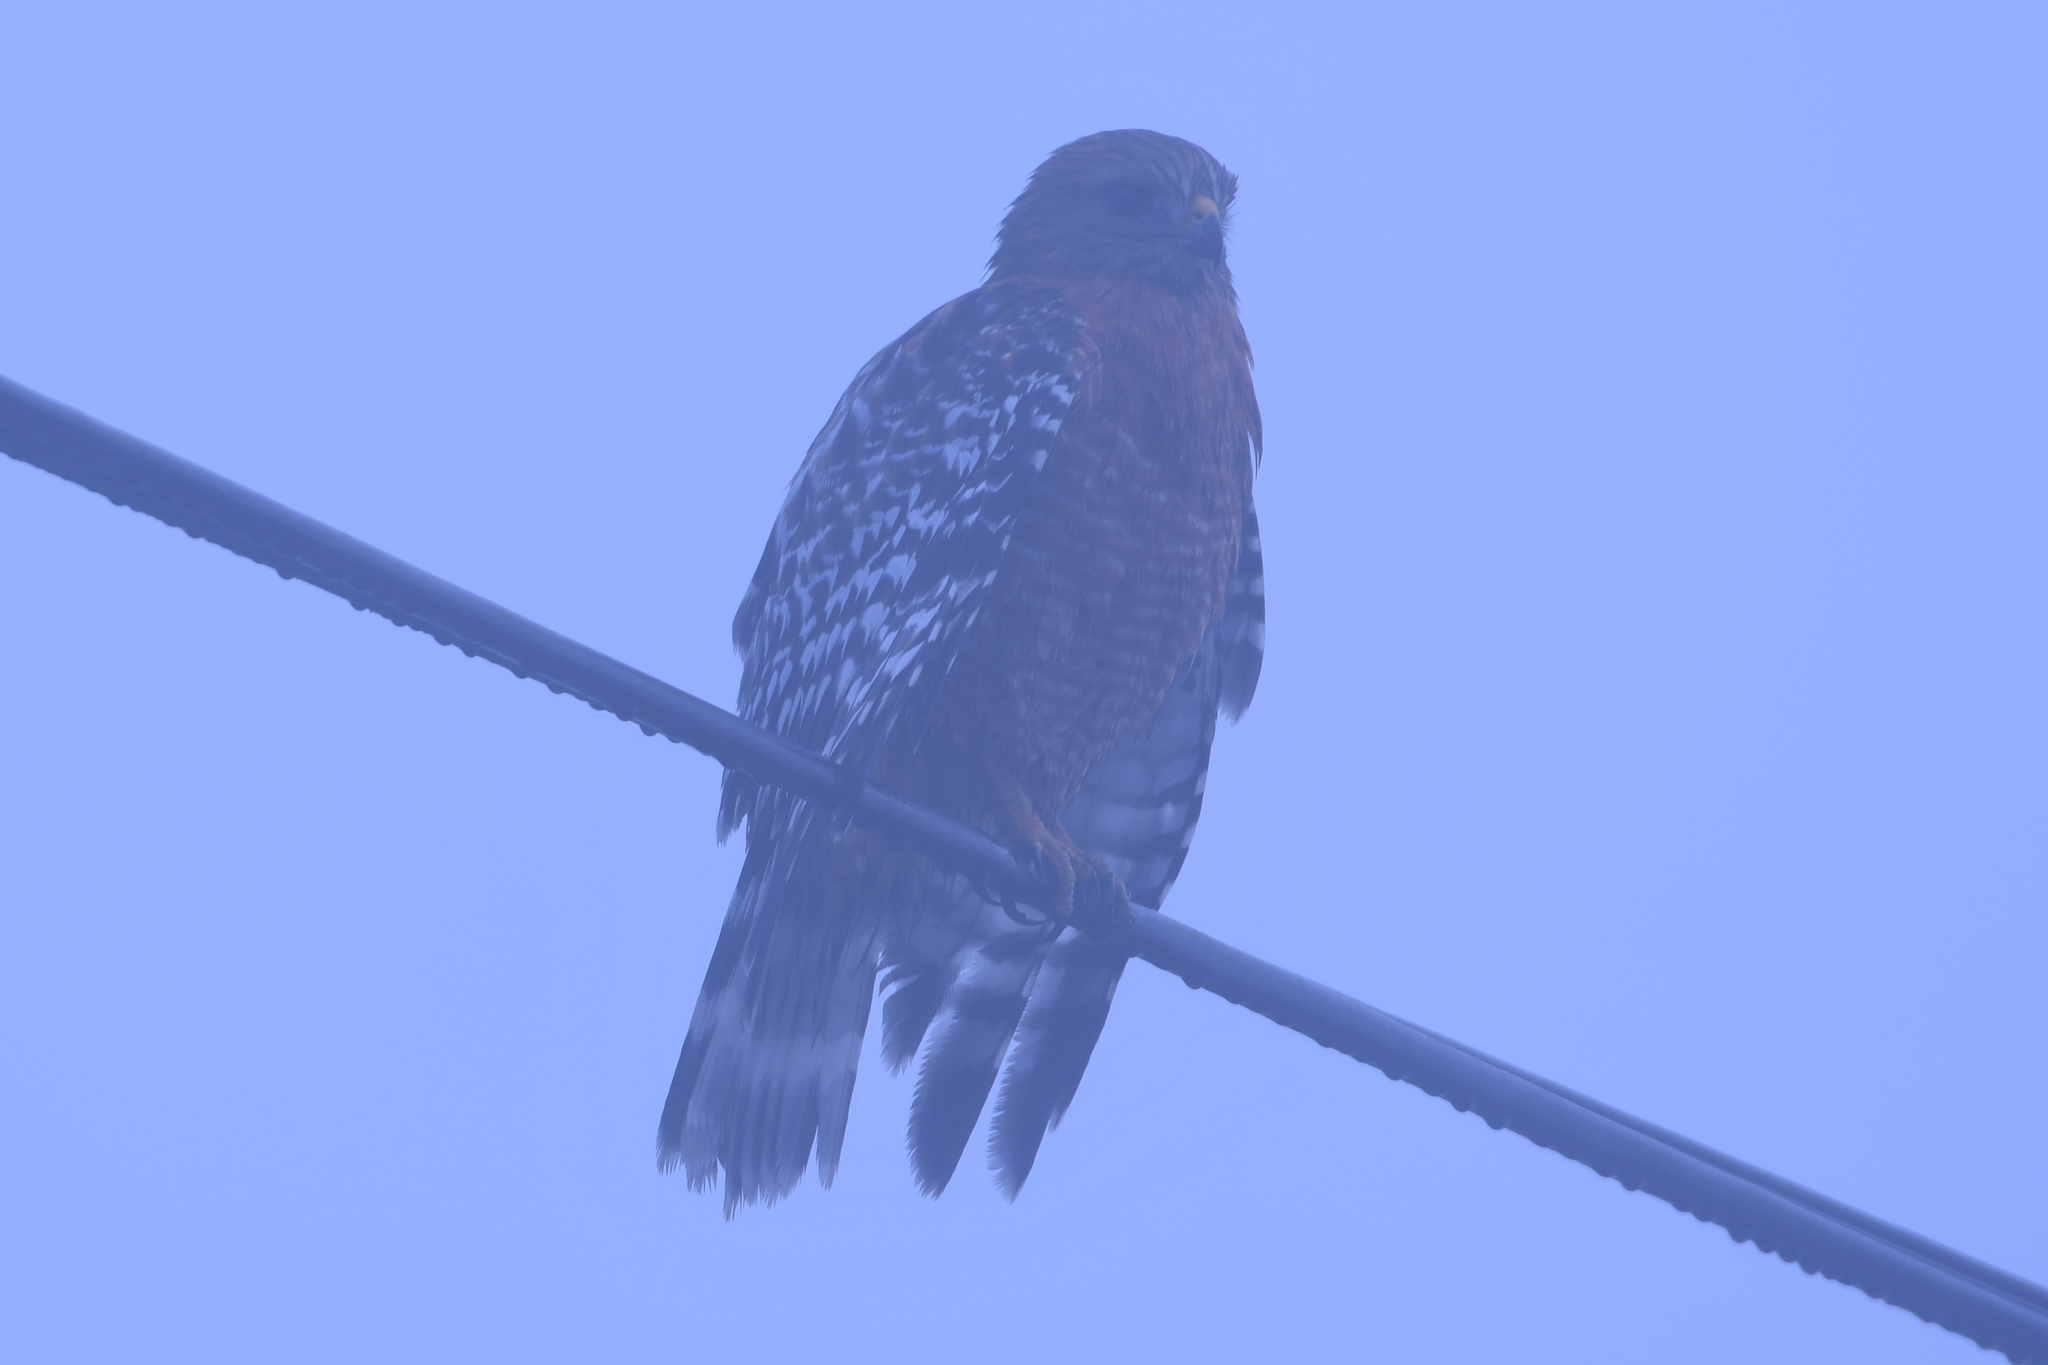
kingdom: Animalia
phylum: Chordata
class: Aves
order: Accipitriformes
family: Accipitridae
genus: Buteo
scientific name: Buteo lineatus
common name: Red-shouldered hawk
